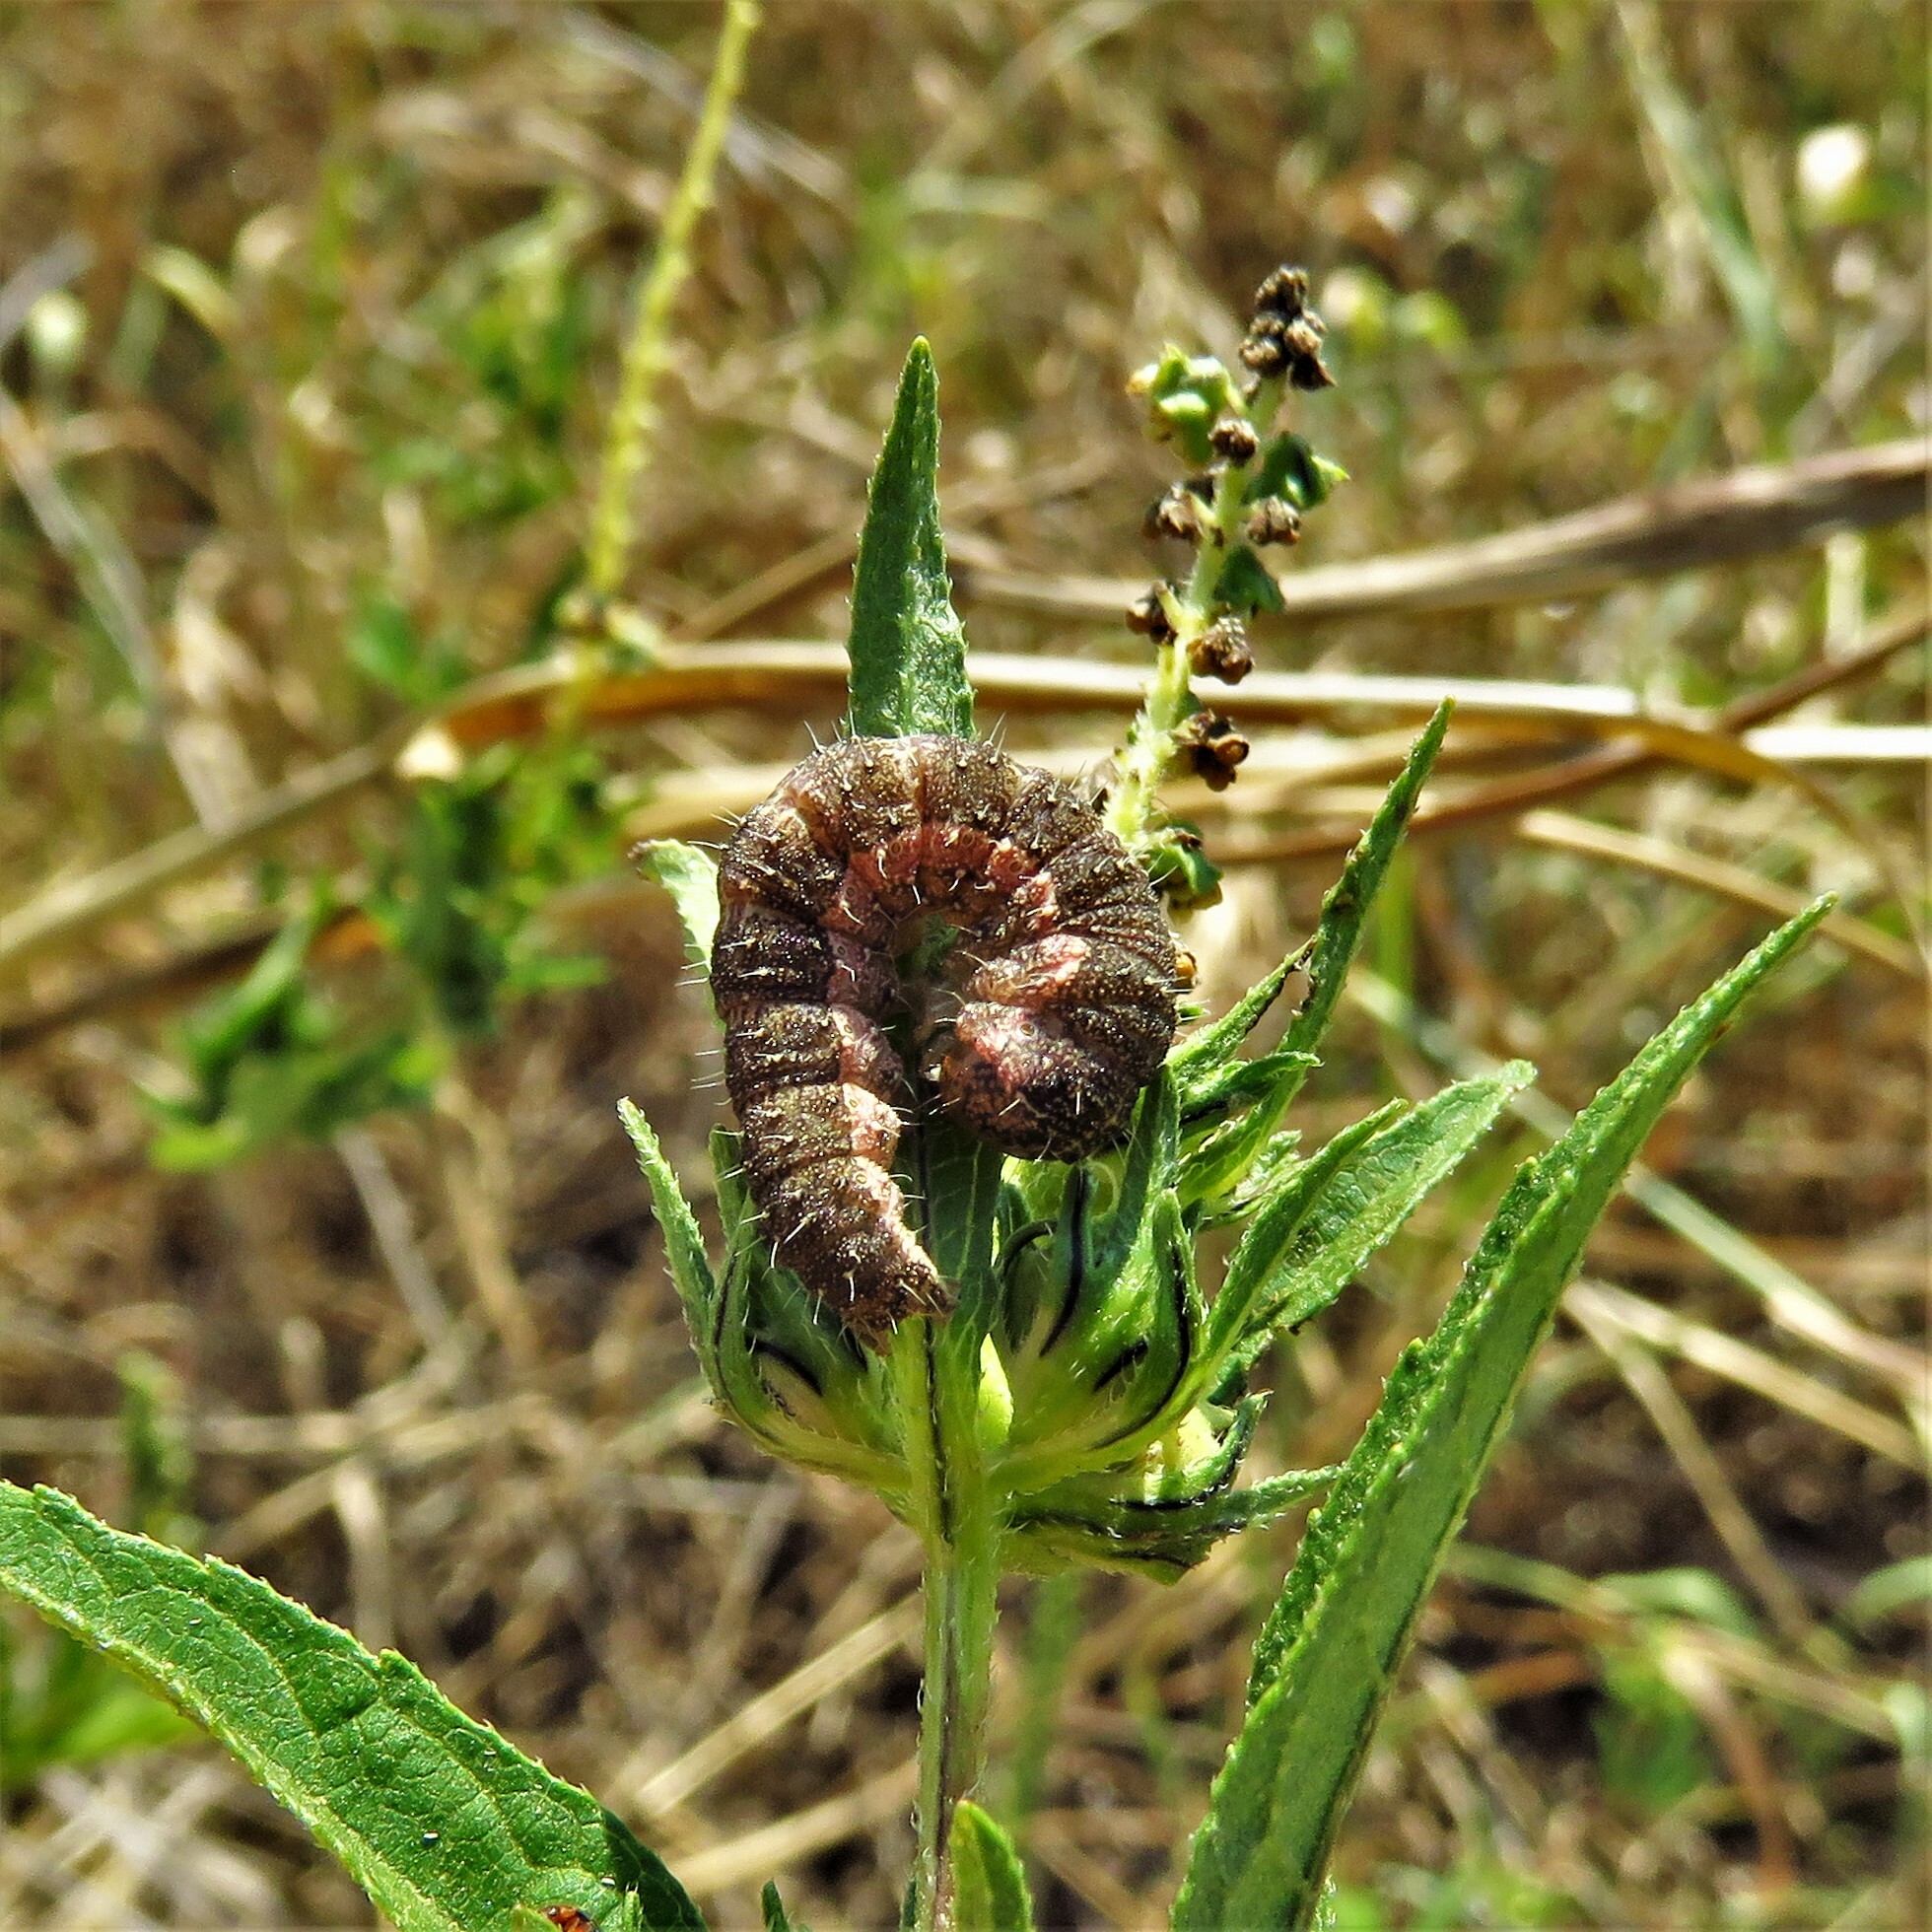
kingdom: Animalia
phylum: Arthropoda
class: Insecta
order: Lepidoptera
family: Noctuidae
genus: Schinia
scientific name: Schinia rivulosa
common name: Scarce meal-moth
